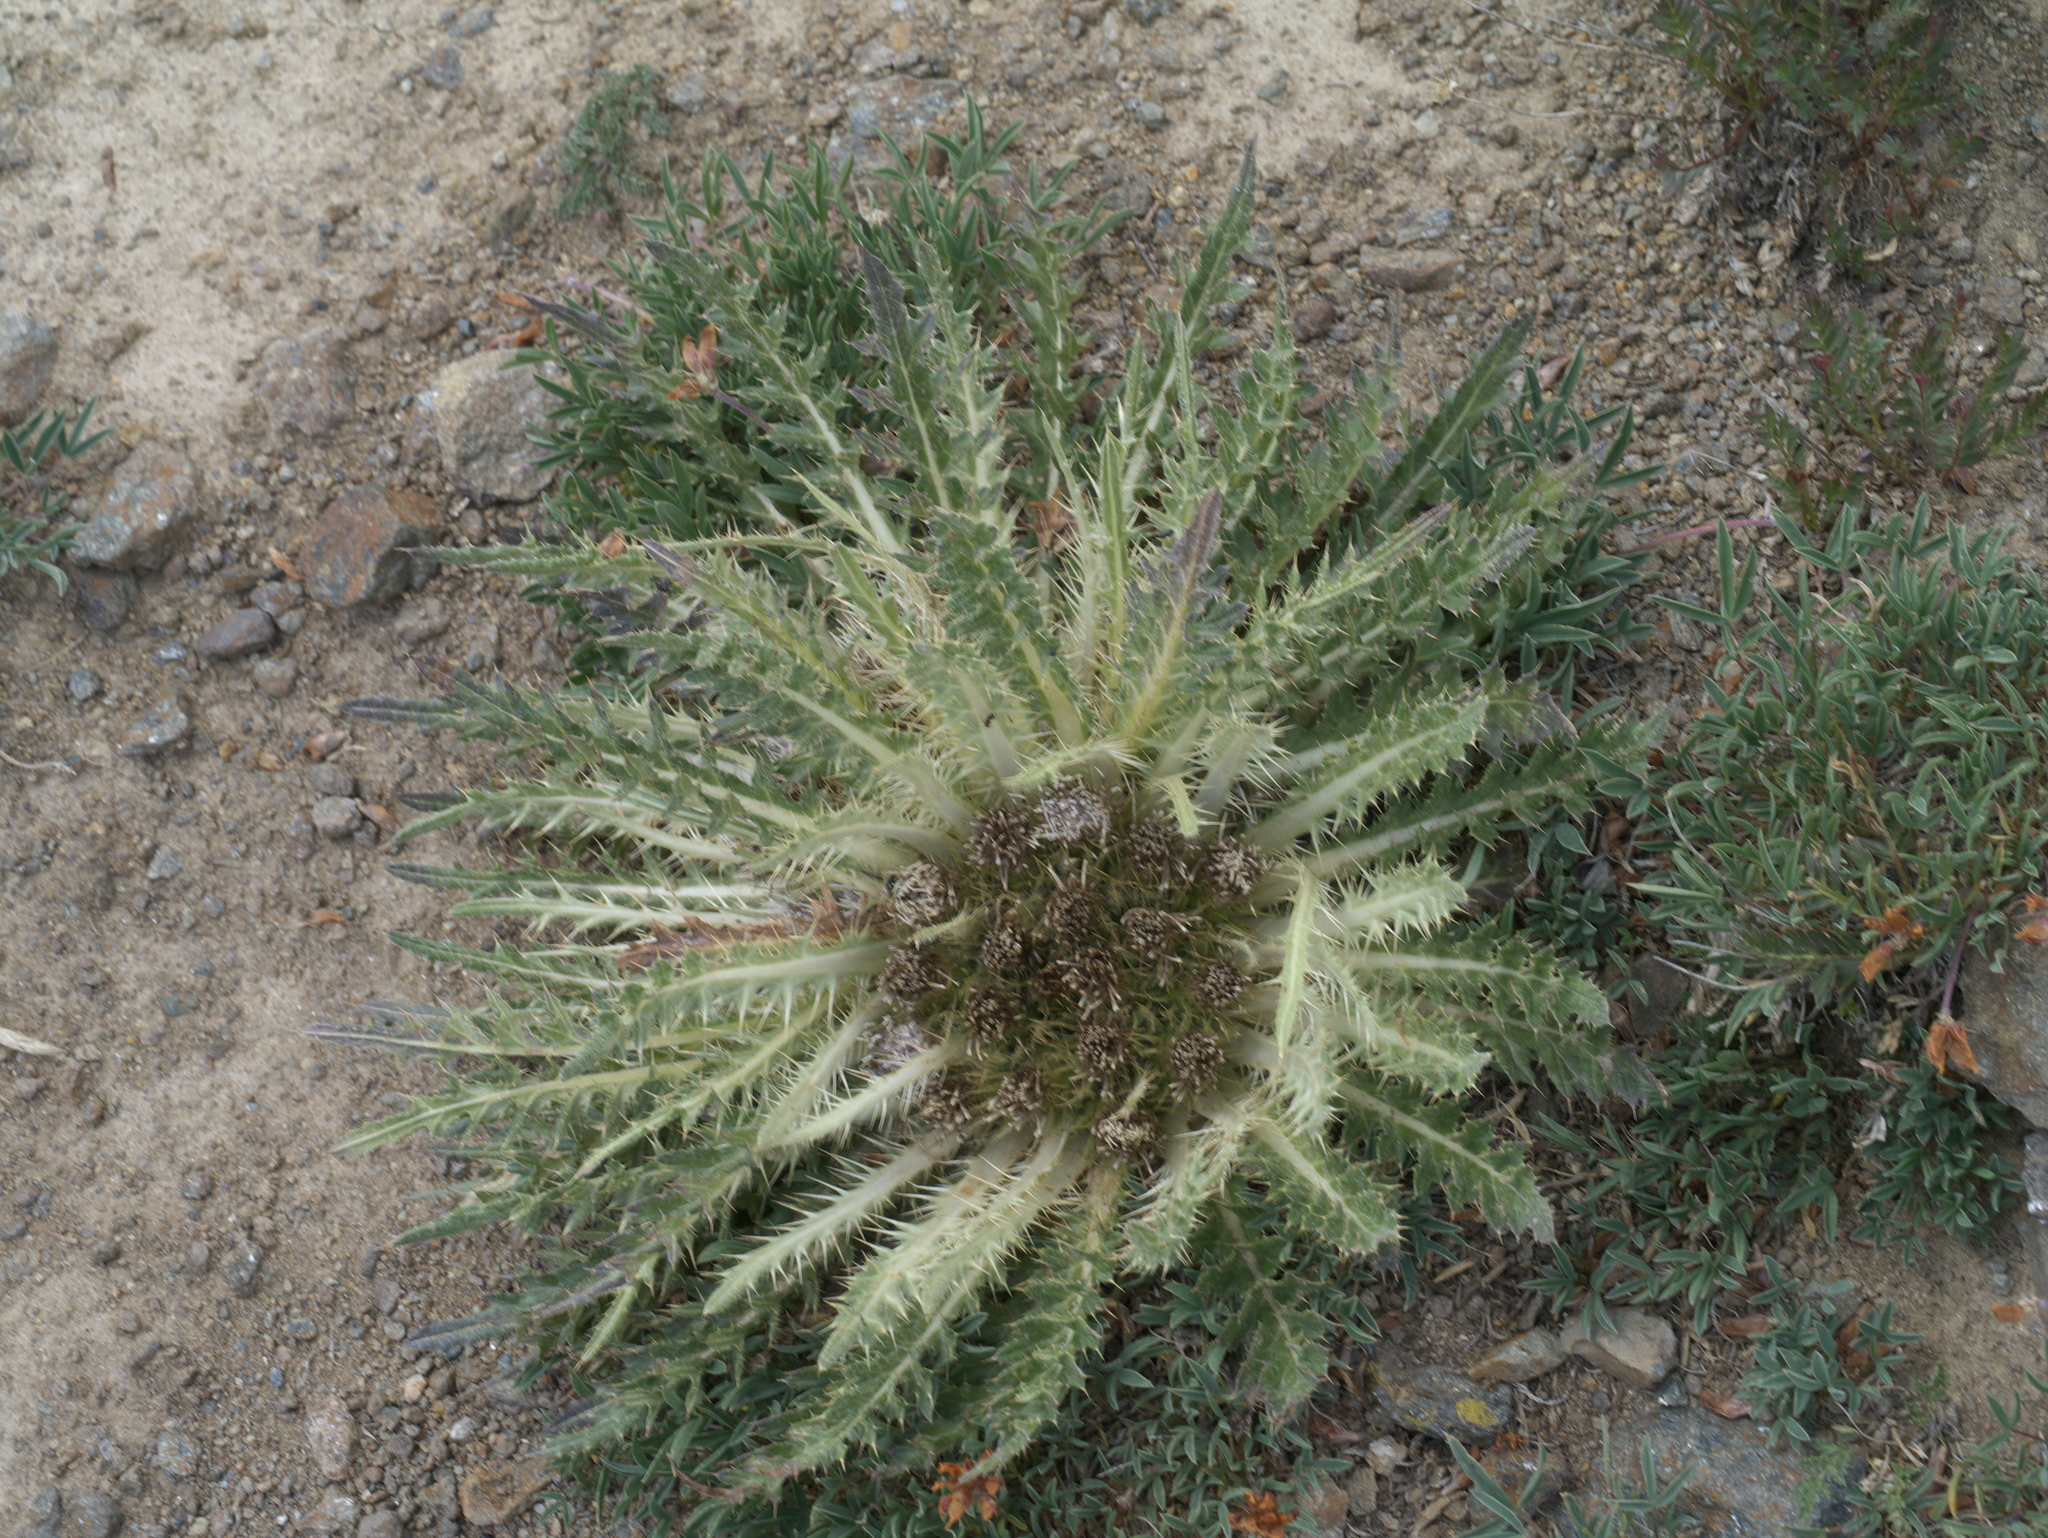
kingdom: Plantae
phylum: Tracheophyta
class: Magnoliopsida
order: Asterales
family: Asteraceae
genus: Cirsium
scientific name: Cirsium tioganum
